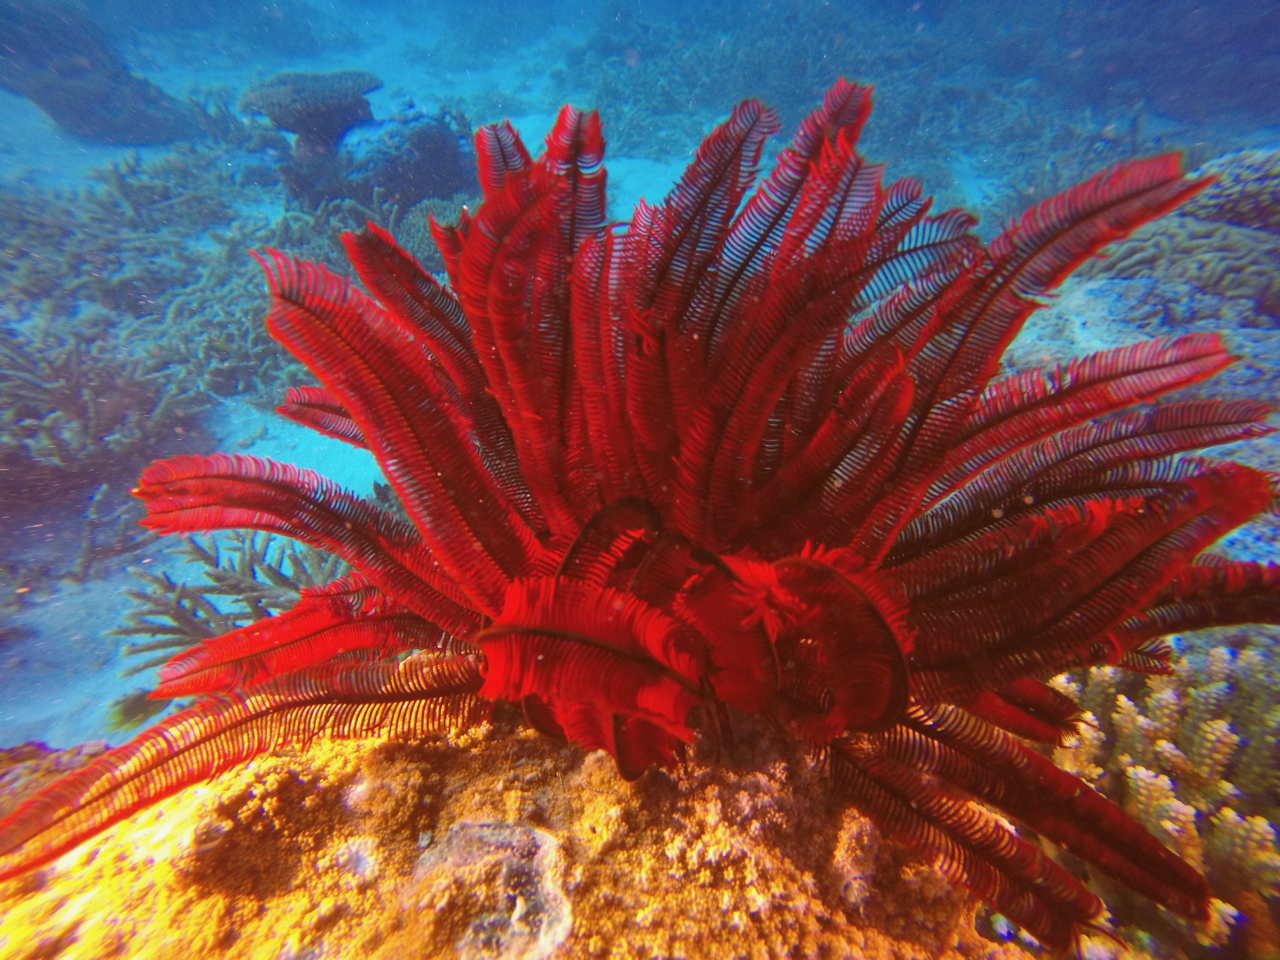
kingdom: Animalia
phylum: Echinodermata
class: Crinoidea
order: Comatulida
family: Himerometridae
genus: Himerometra
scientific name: Himerometra robustipinna
